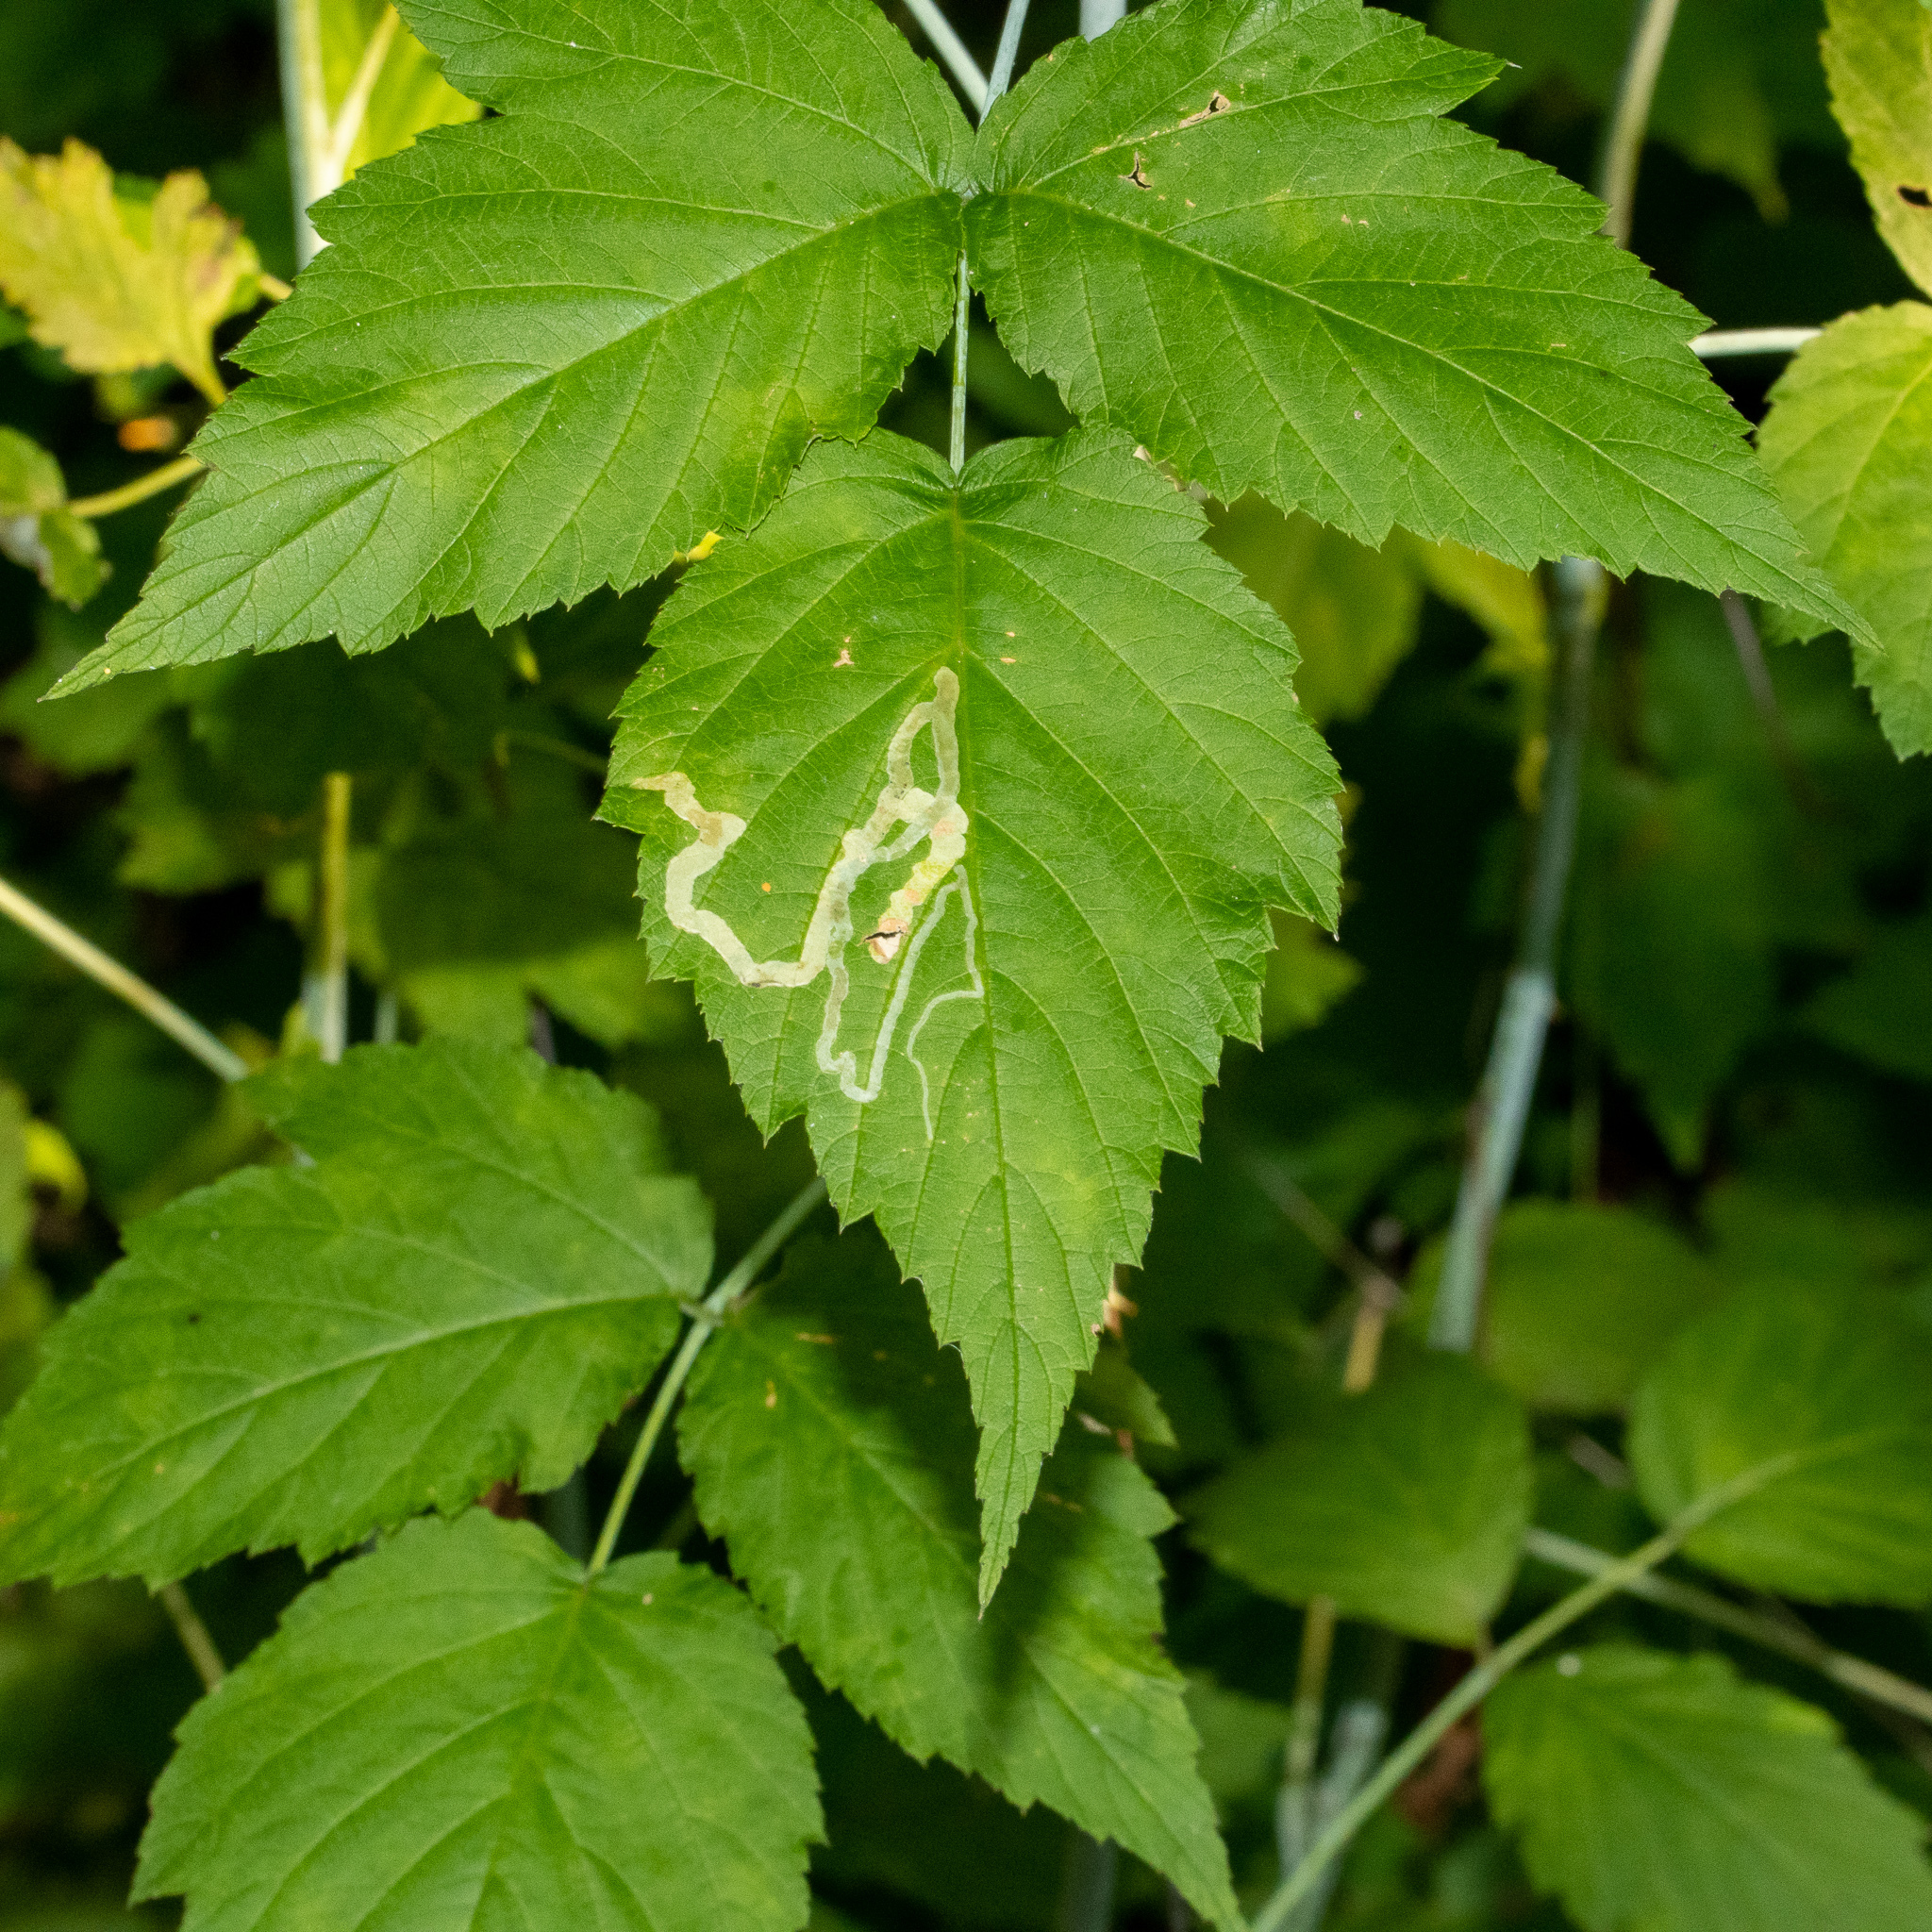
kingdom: Animalia
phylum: Arthropoda
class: Insecta
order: Diptera
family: Agromyzidae
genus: Agromyza
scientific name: Agromyza vockerothi
